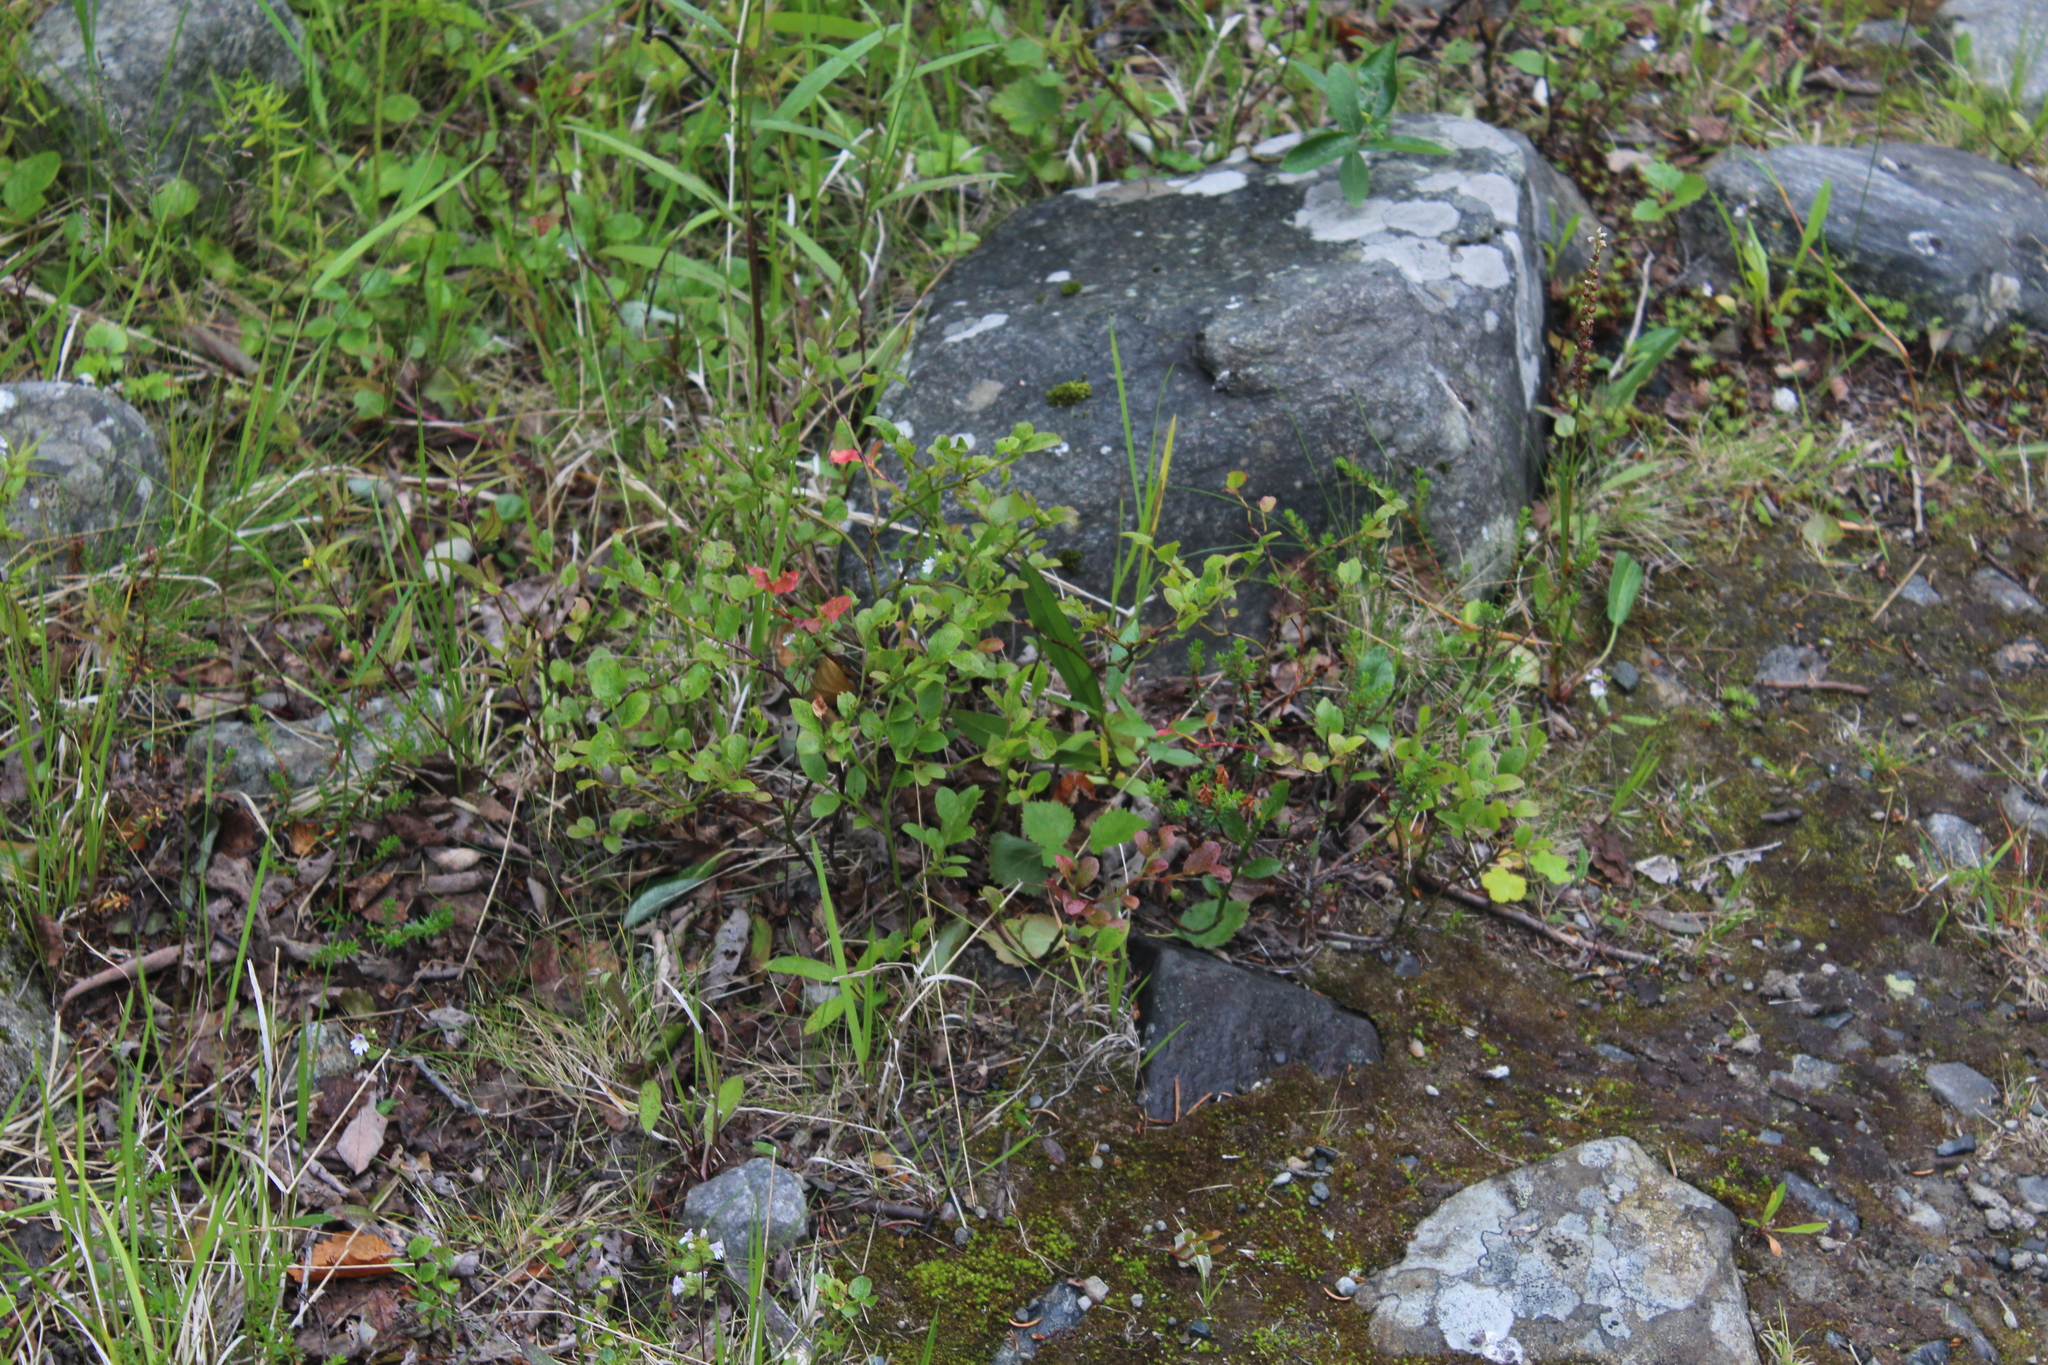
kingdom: Plantae
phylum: Tracheophyta
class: Magnoliopsida
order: Ericales
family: Ericaceae
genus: Vaccinium
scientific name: Vaccinium myrtillus
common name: Bilberry
